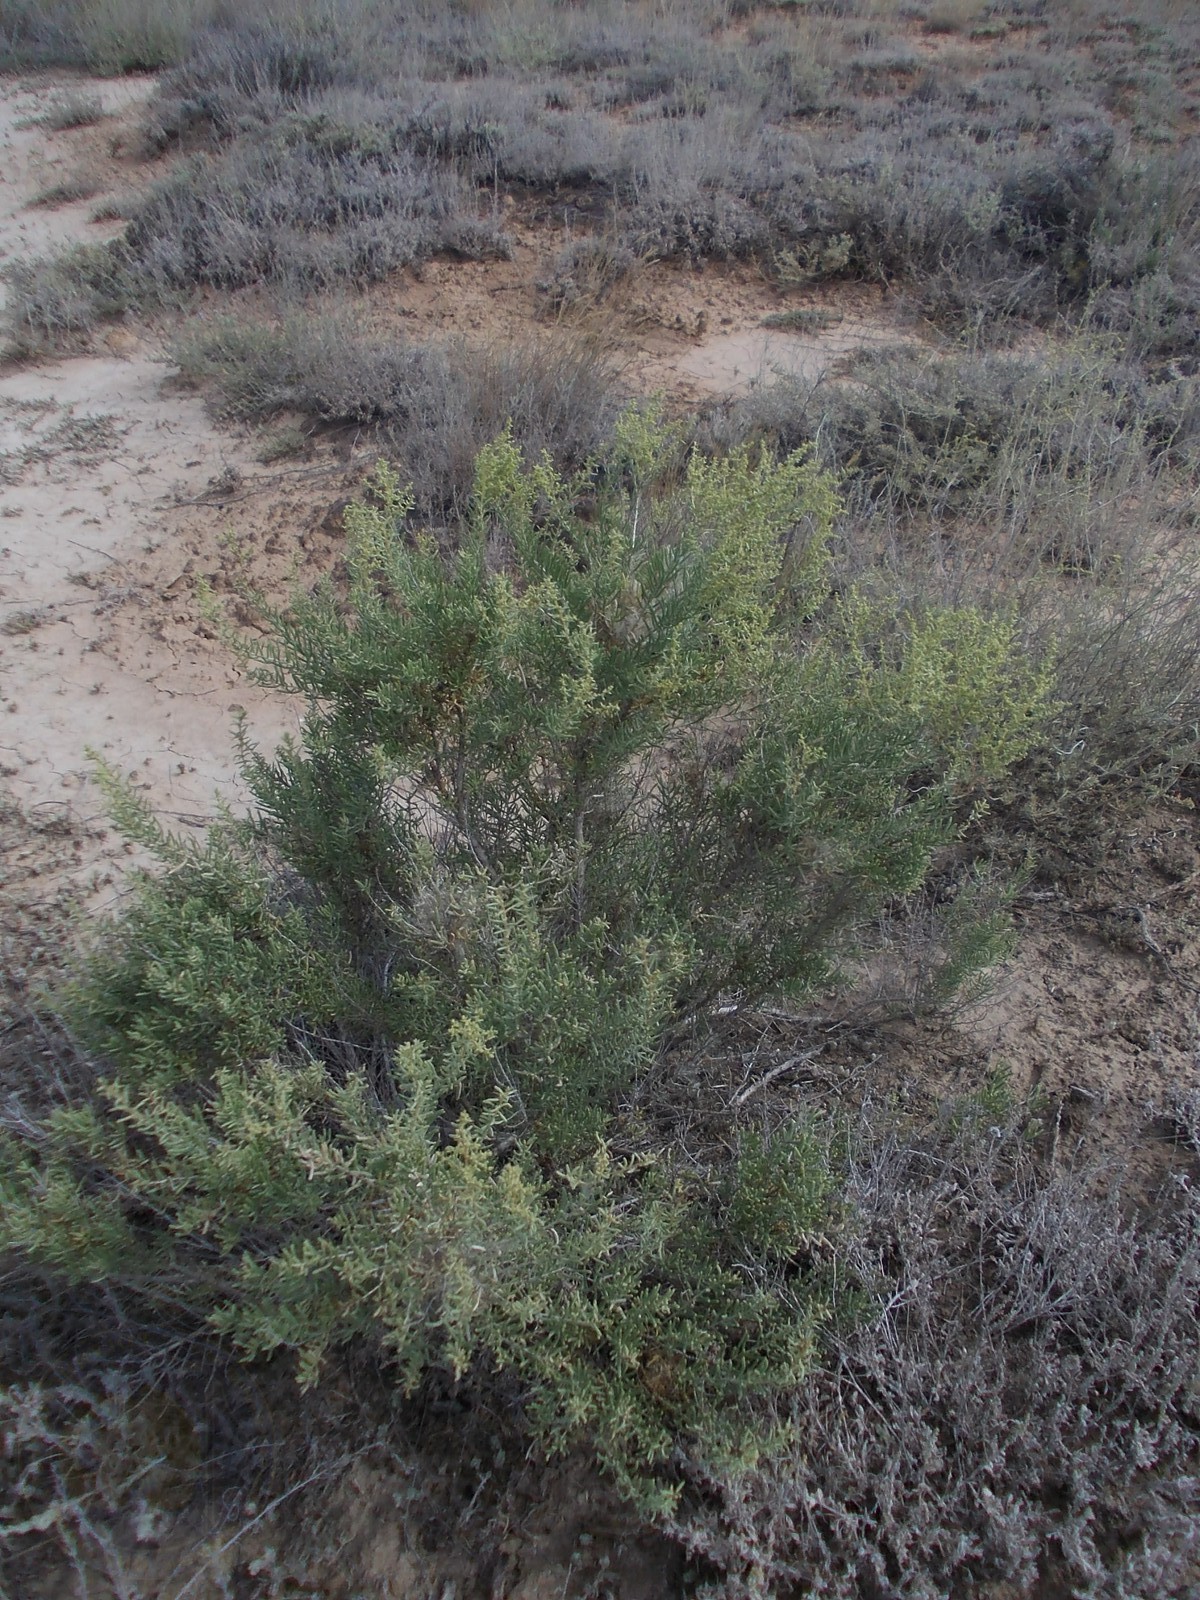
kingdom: Plantae
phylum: Tracheophyta
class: Magnoliopsida
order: Caryophyllales
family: Amaranthaceae
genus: Suaeda
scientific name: Suaeda physophora
